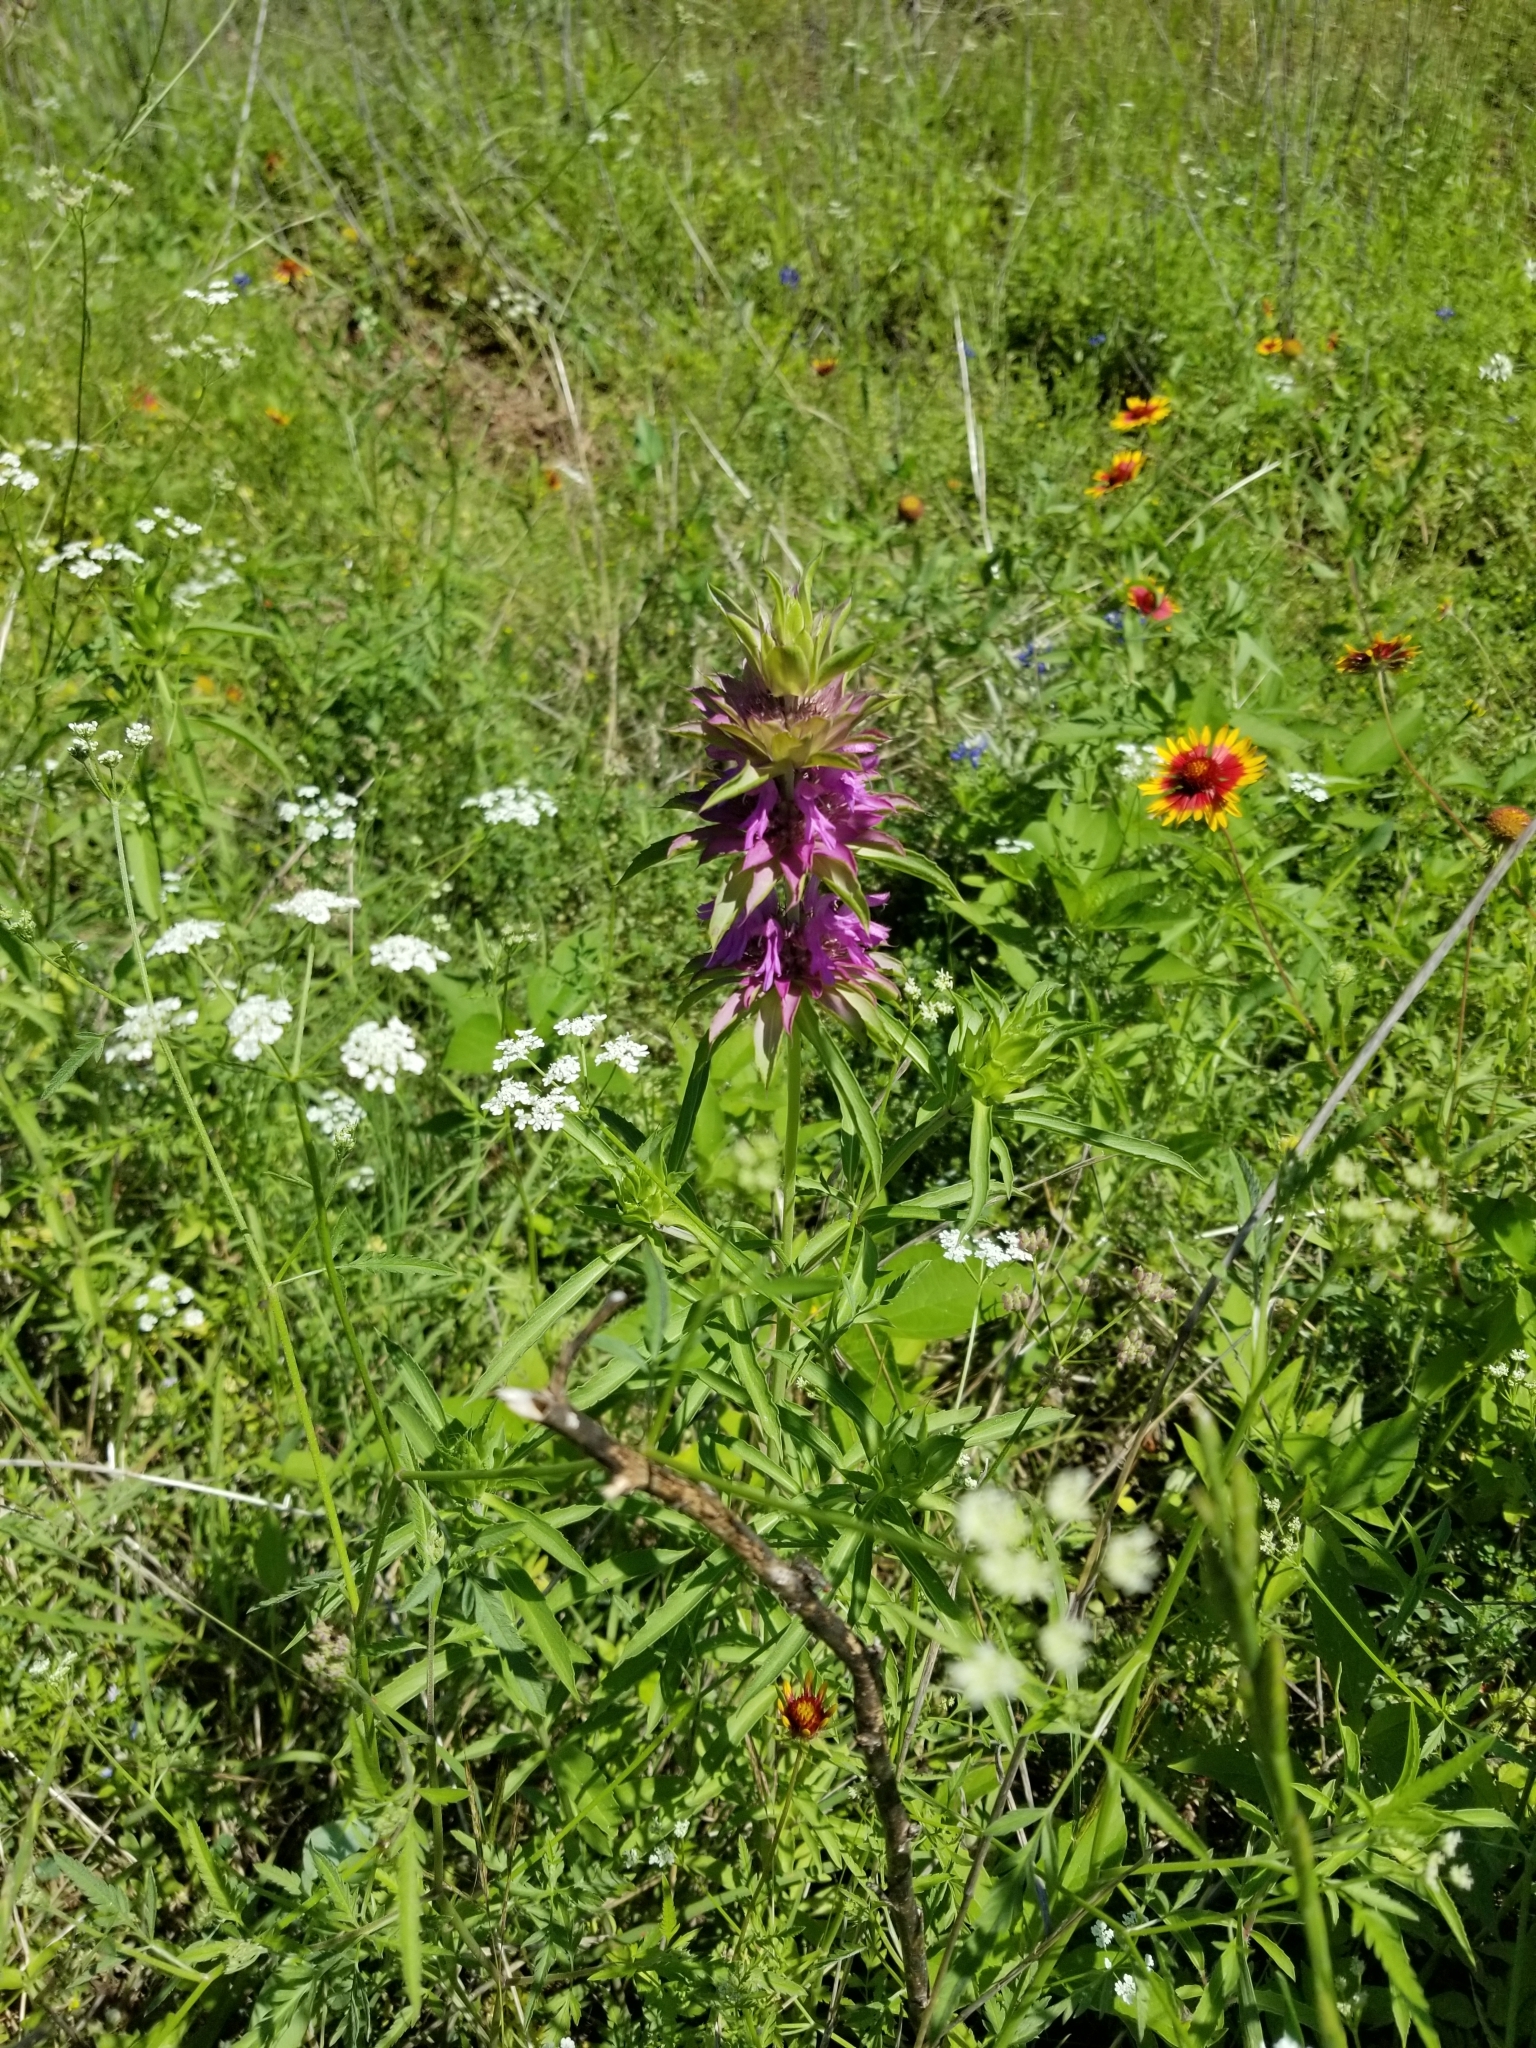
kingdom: Plantae
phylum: Tracheophyta
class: Magnoliopsida
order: Lamiales
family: Lamiaceae
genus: Monarda
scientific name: Monarda citriodora
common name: Lemon beebalm
